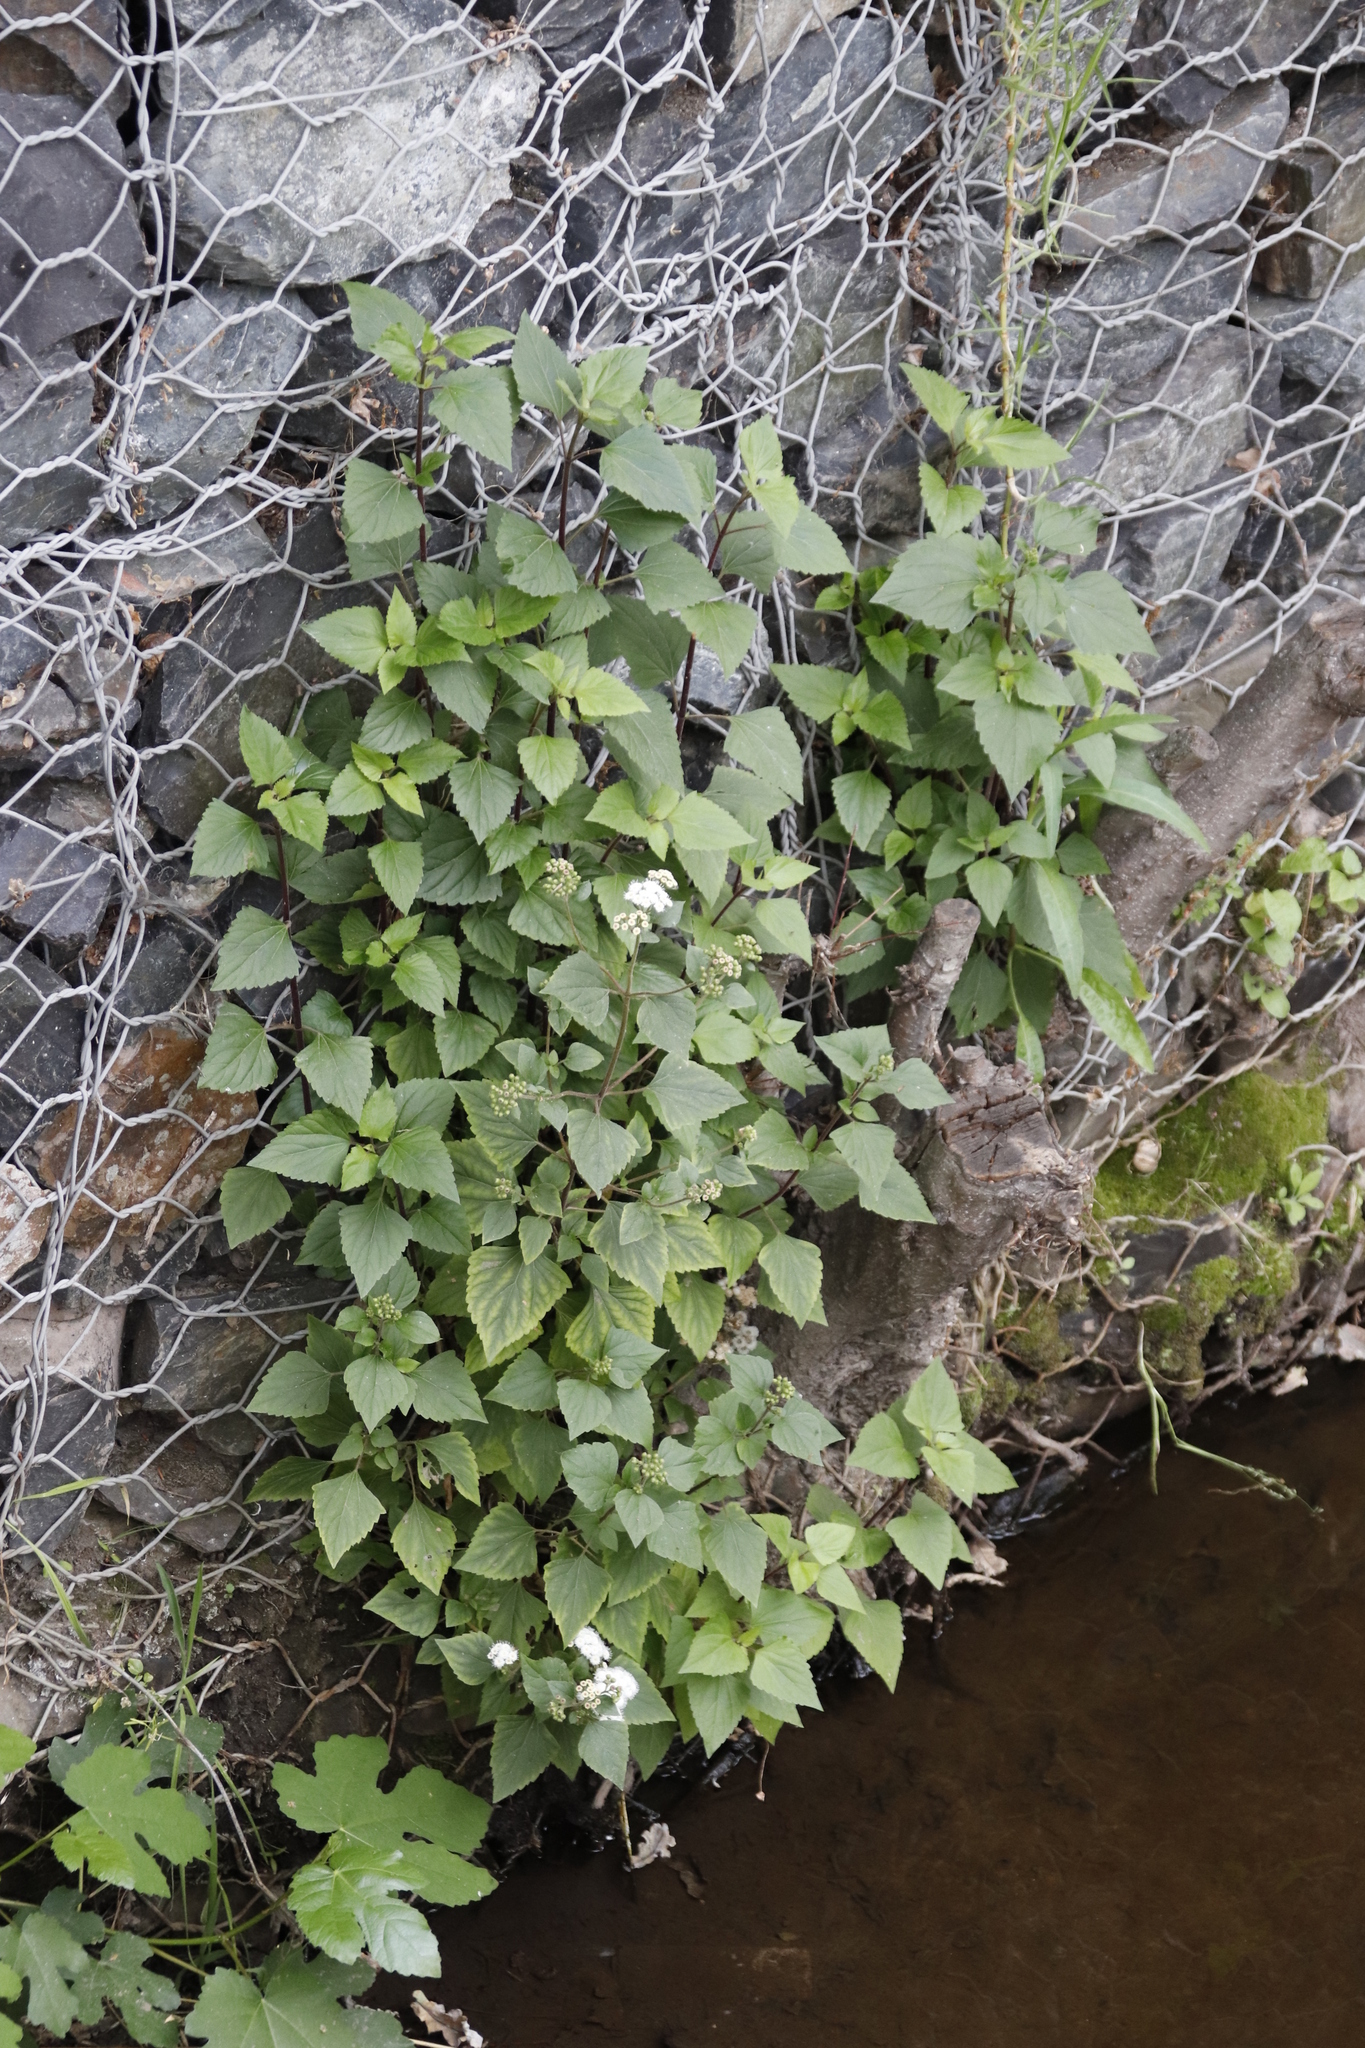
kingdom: Plantae
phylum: Tracheophyta
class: Magnoliopsida
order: Asterales
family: Asteraceae
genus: Ageratina
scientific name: Ageratina adenophora
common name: Sticky snakeroot
